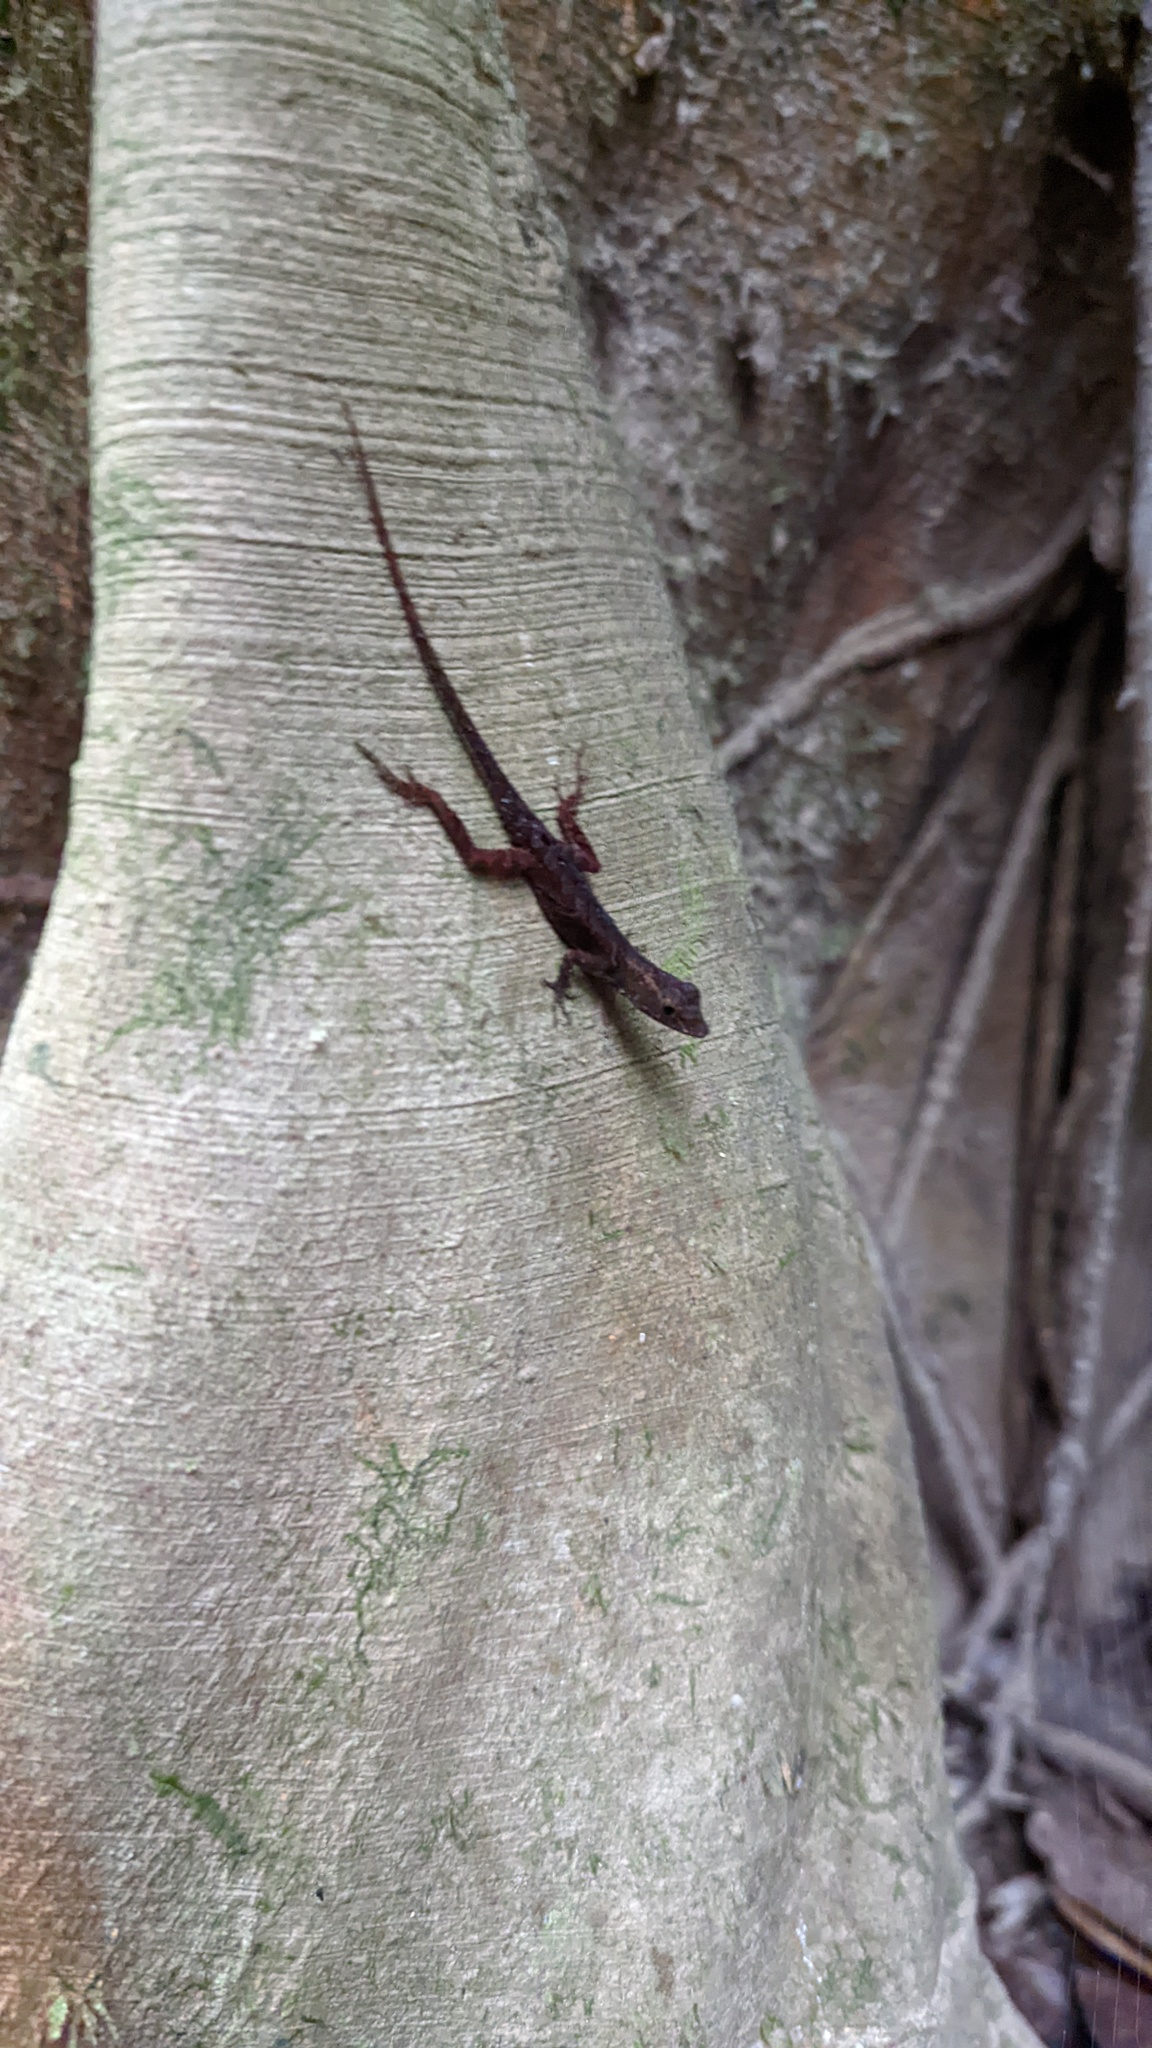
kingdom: Animalia
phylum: Chordata
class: Squamata
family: Dactyloidae
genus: Anolis
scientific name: Anolis humilis
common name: Humble anole
